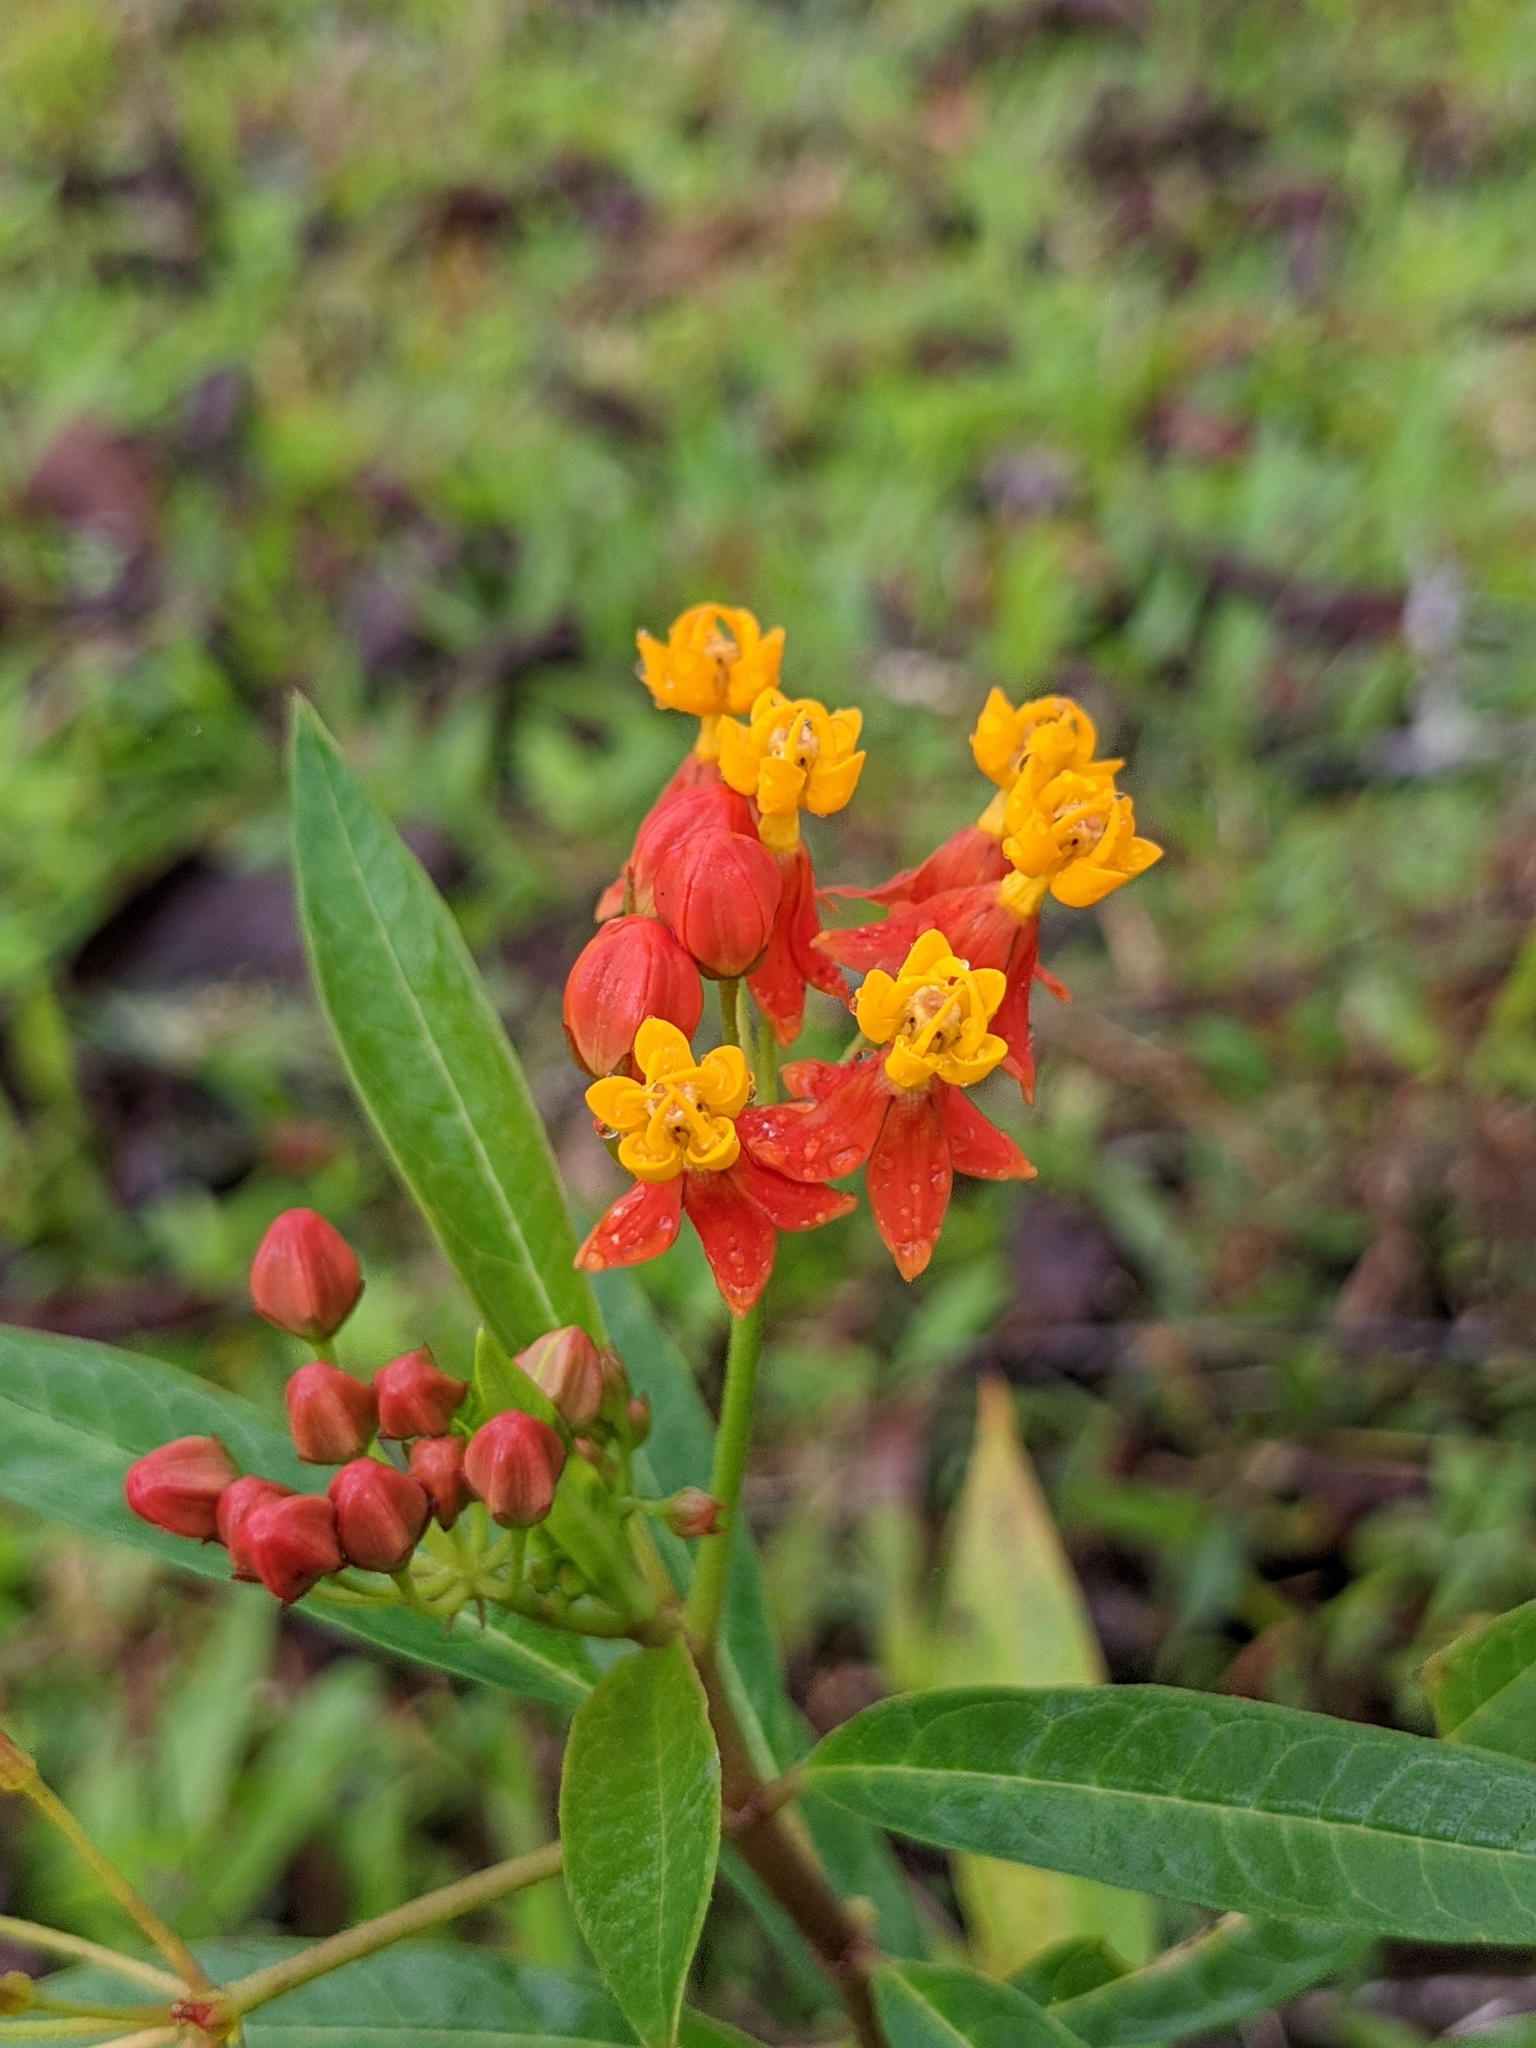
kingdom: Plantae
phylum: Tracheophyta
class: Magnoliopsida
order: Gentianales
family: Apocynaceae
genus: Asclepias
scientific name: Asclepias curassavica
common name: Bloodflower
